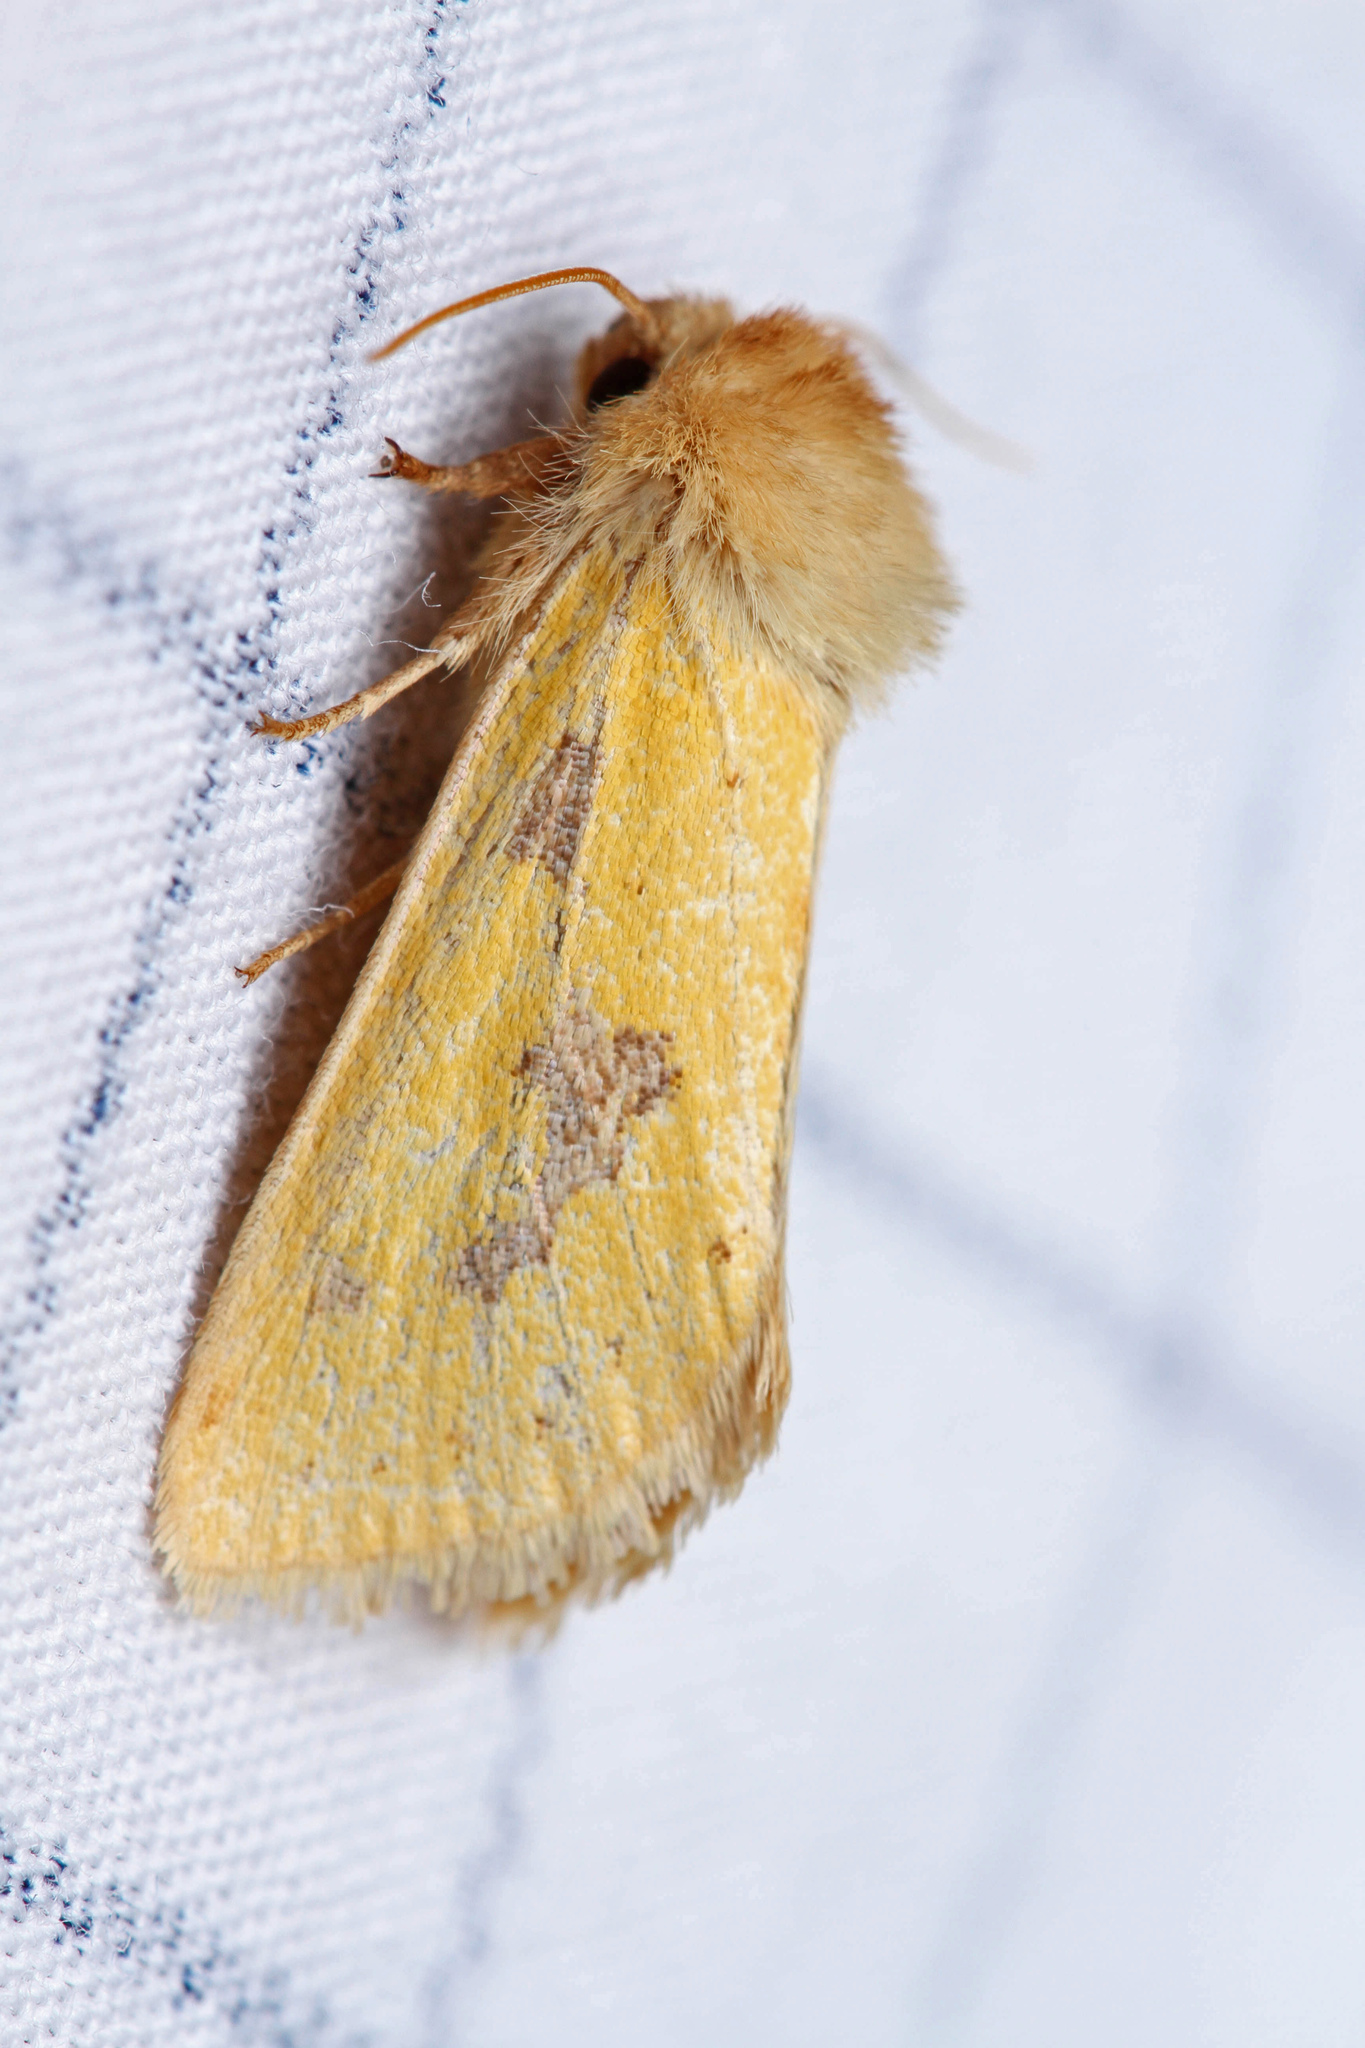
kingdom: Animalia
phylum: Arthropoda
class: Insecta
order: Lepidoptera
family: Noctuidae
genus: Nocloa
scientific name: Nocloa nanata
